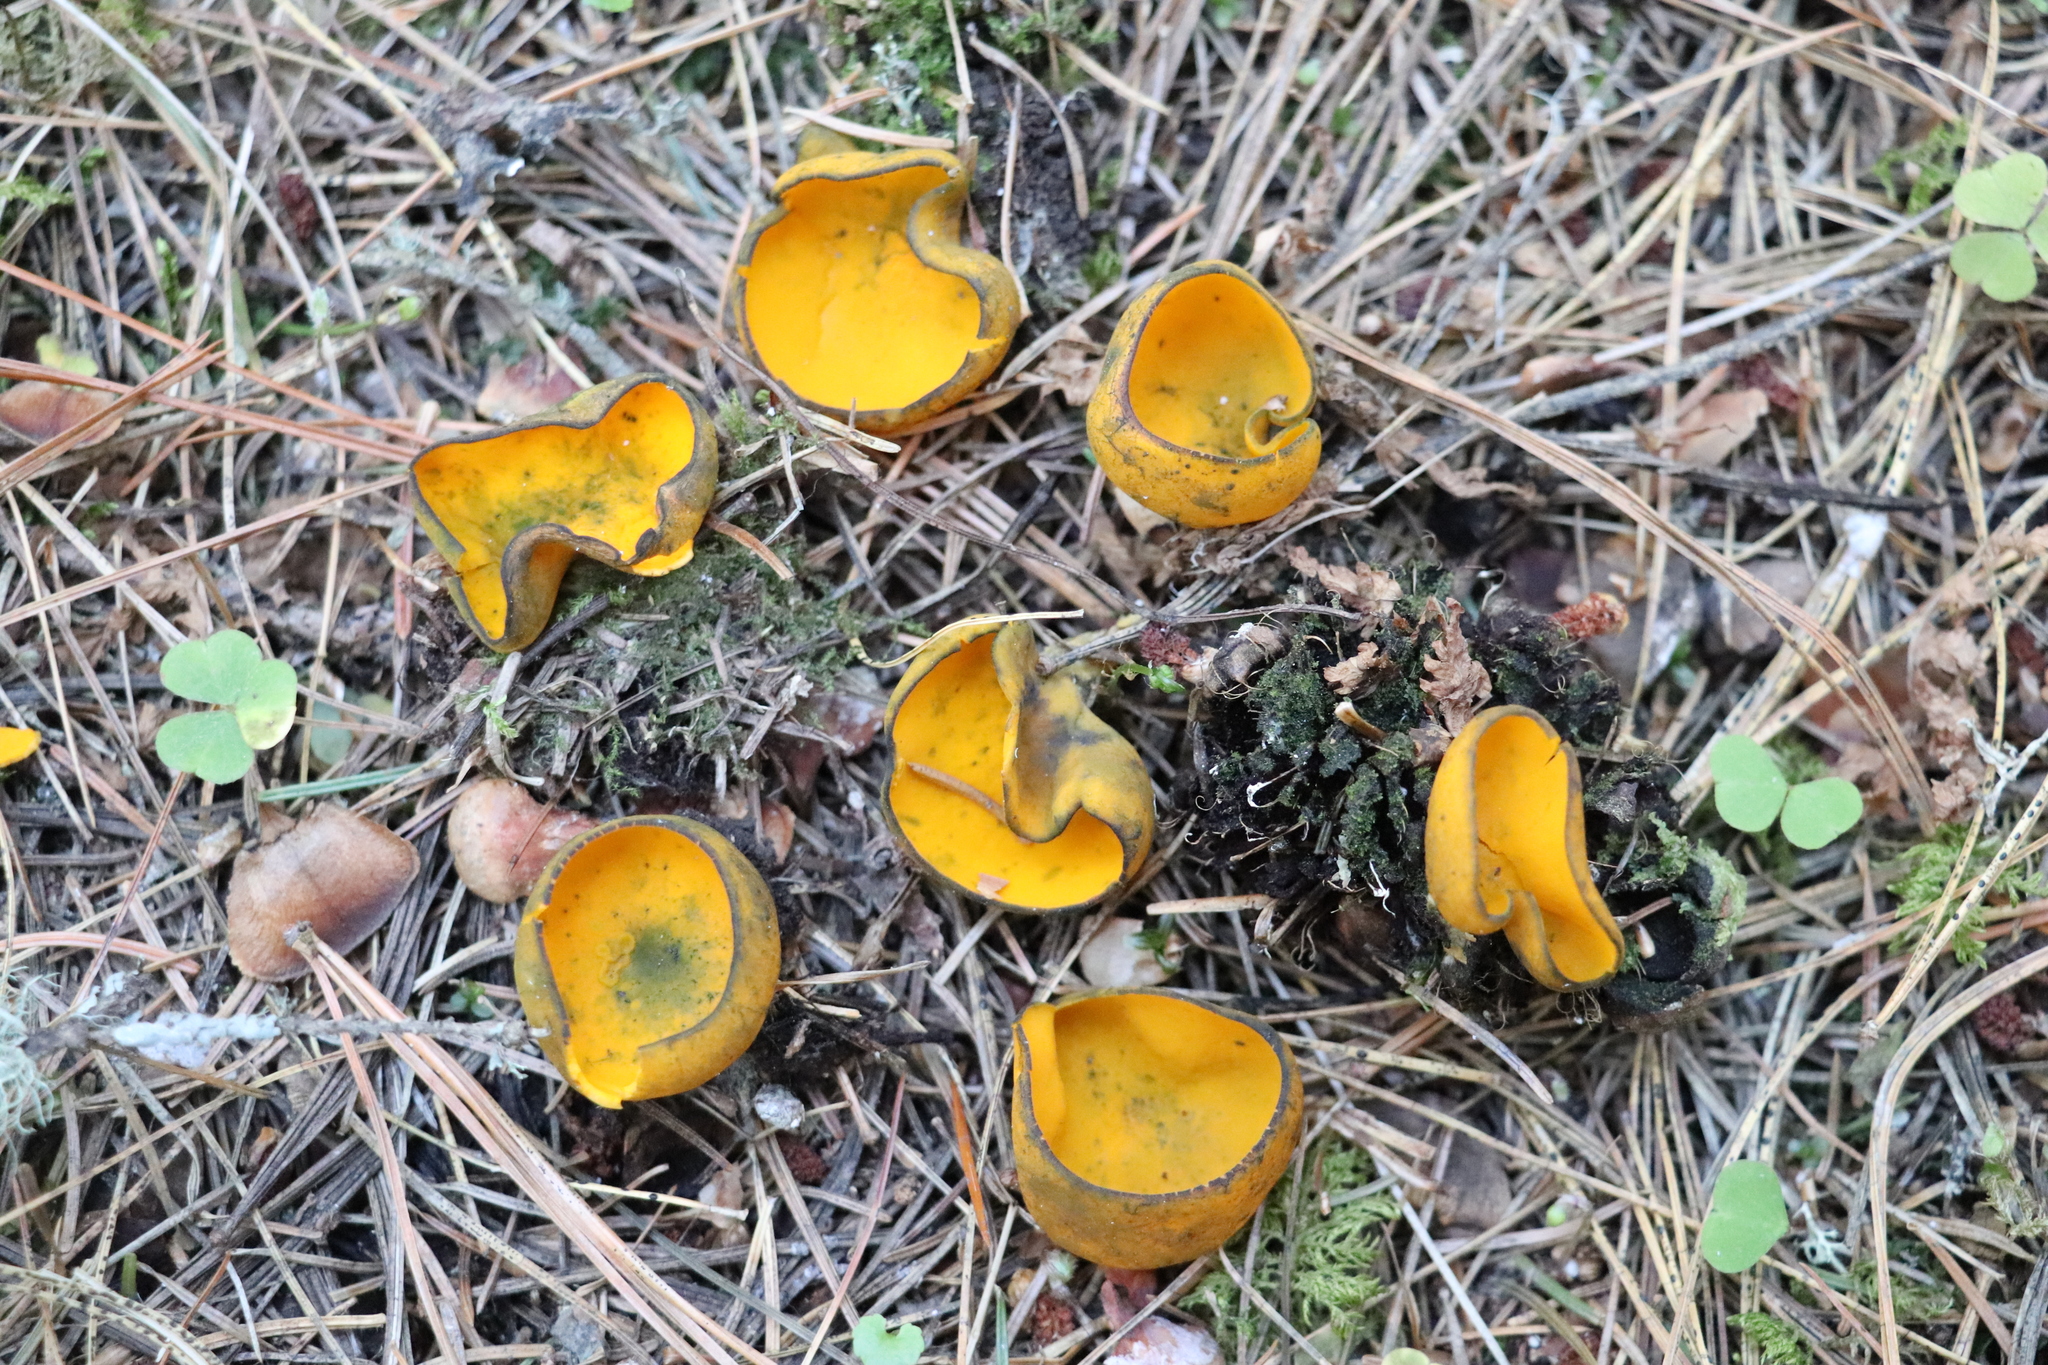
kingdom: Fungi
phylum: Ascomycota
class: Pezizomycetes
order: Pezizales
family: Caloscyphaceae
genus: Caloscypha
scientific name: Caloscypha fulgens
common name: Golden cup
